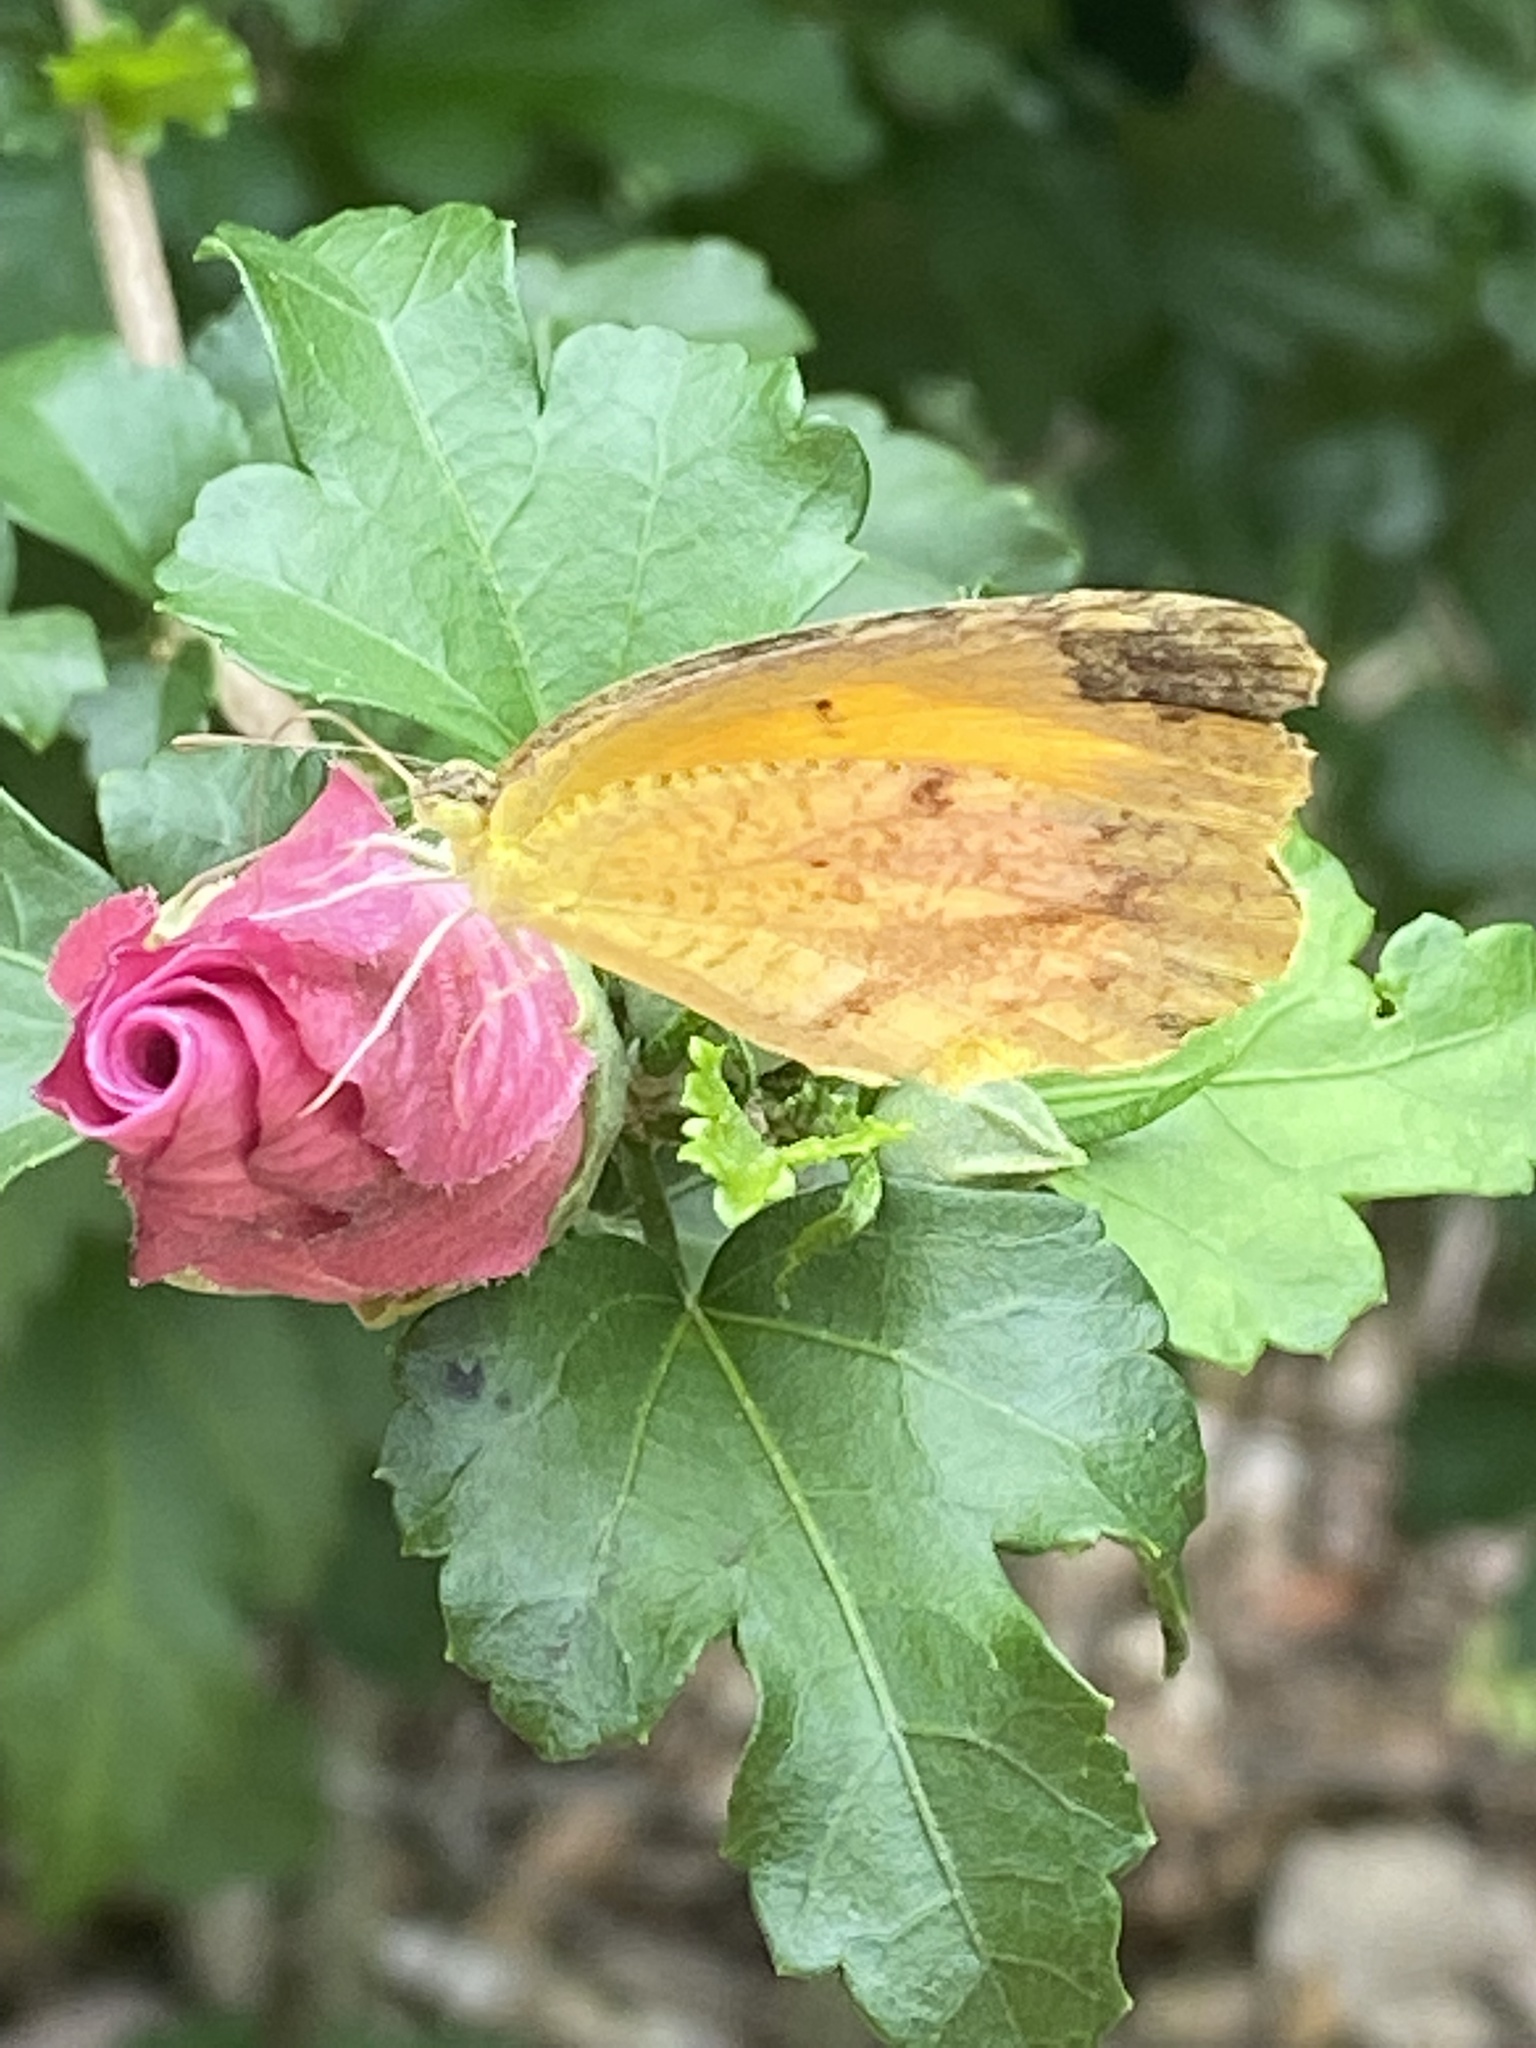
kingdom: Animalia
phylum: Arthropoda
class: Insecta
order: Lepidoptera
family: Pieridae
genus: Abaeis
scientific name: Abaeis nicippe
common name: Sleepy orange
